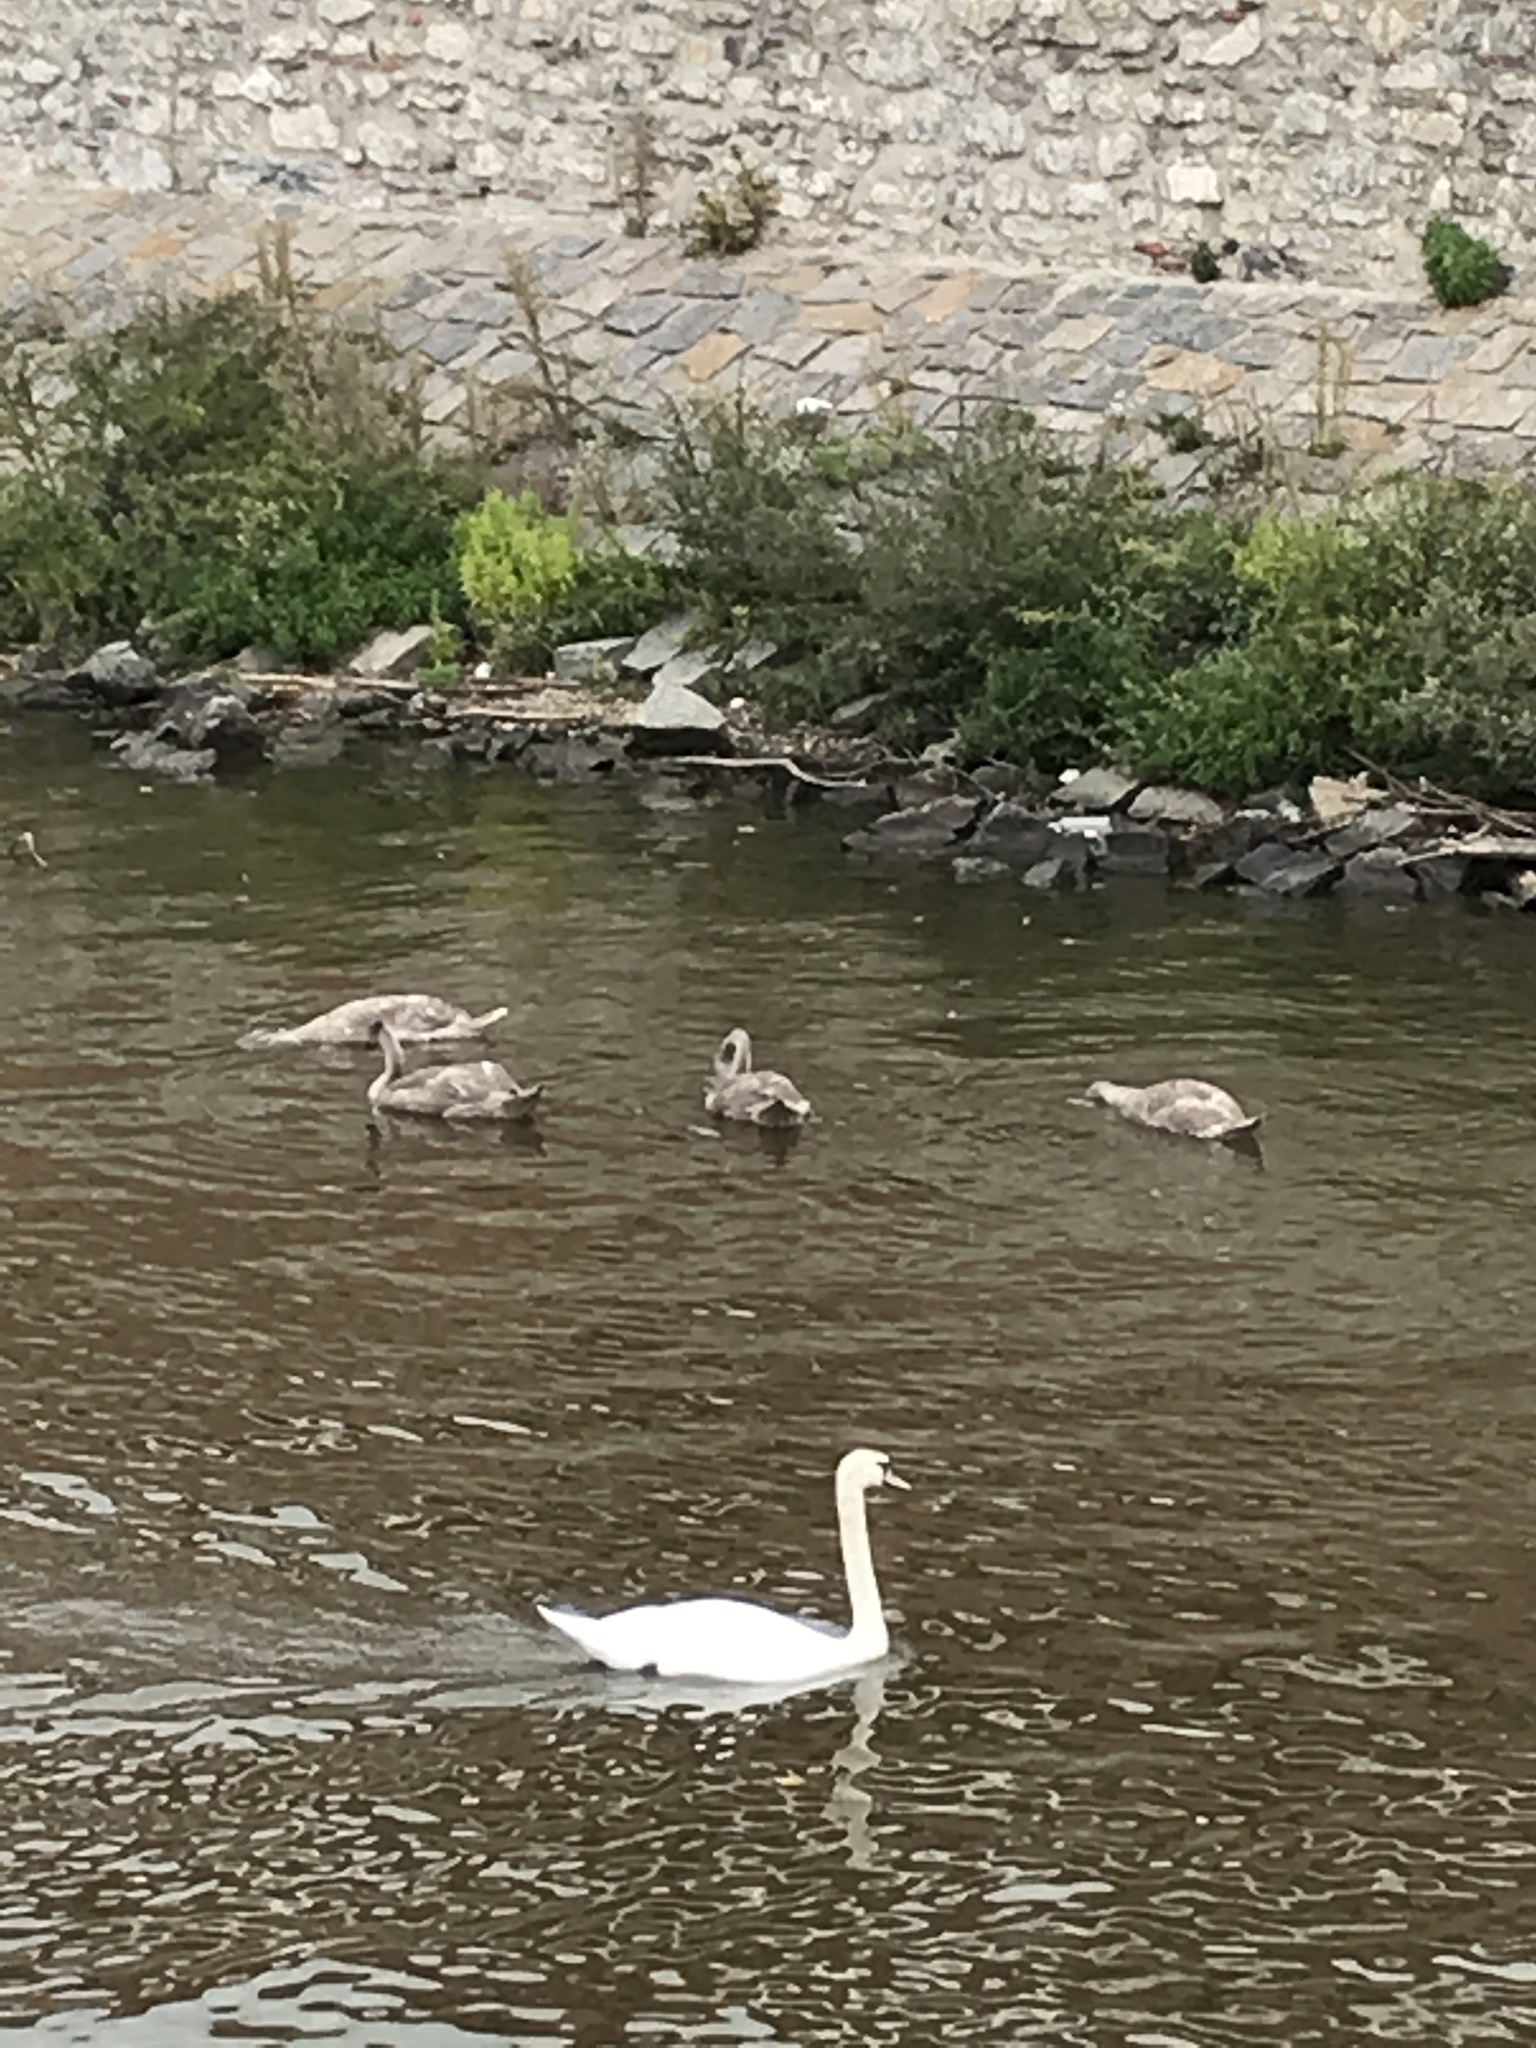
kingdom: Animalia
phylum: Chordata
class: Aves
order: Anseriformes
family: Anatidae
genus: Cygnus
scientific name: Cygnus olor
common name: Mute swan
